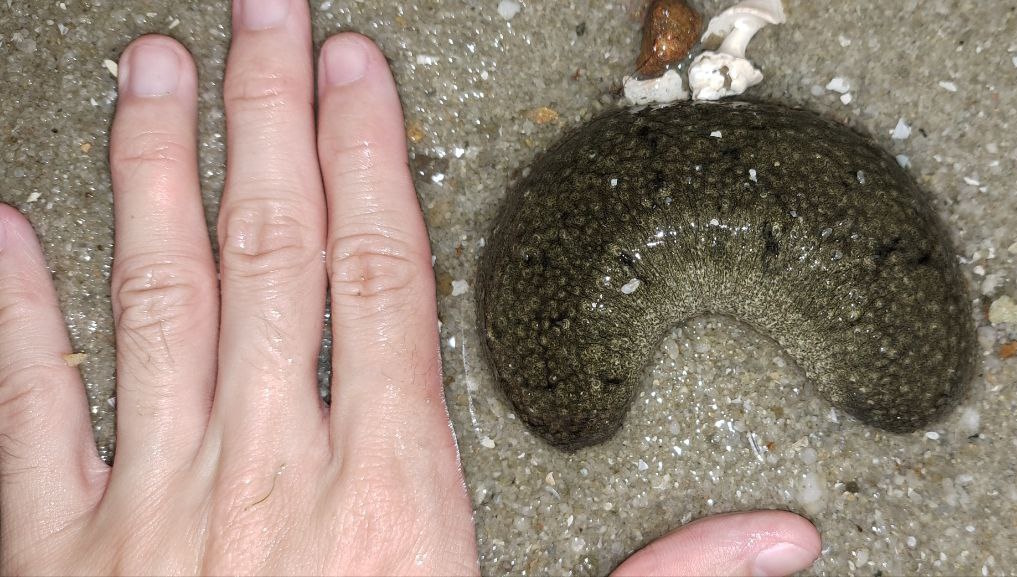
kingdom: Animalia
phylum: Echinodermata
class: Holothuroidea
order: Holothuriida
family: Holothuriidae
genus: Holothuria
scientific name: Holothuria scabra
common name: Golden sandfish
